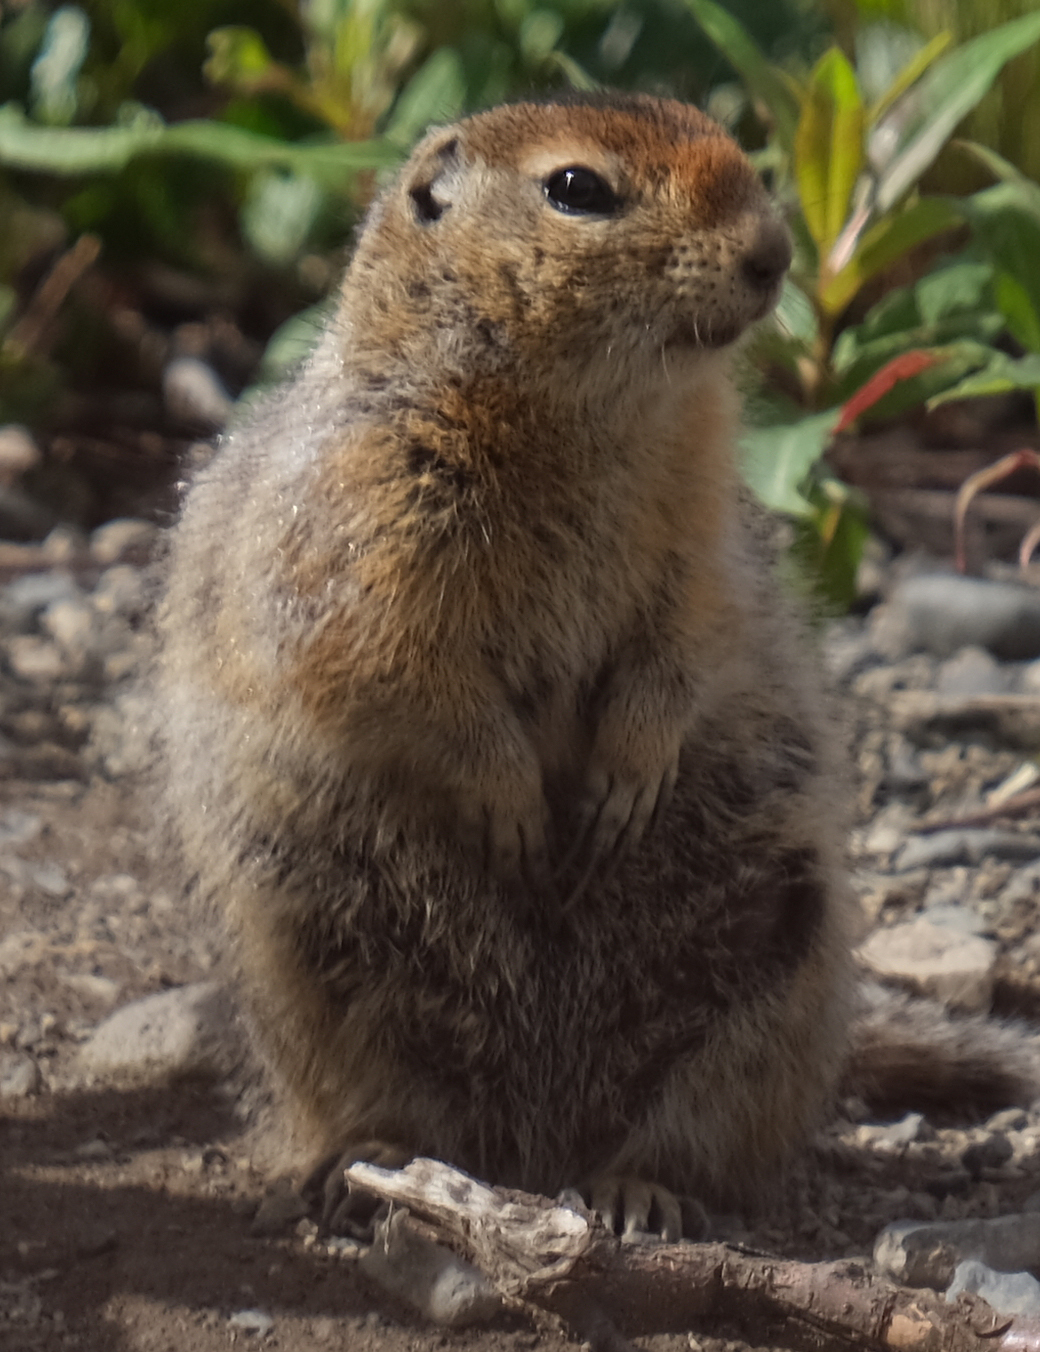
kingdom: Animalia
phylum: Chordata
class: Mammalia
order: Rodentia
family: Sciuridae
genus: Urocitellus
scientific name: Urocitellus parryii
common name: Arctic ground squirrel
